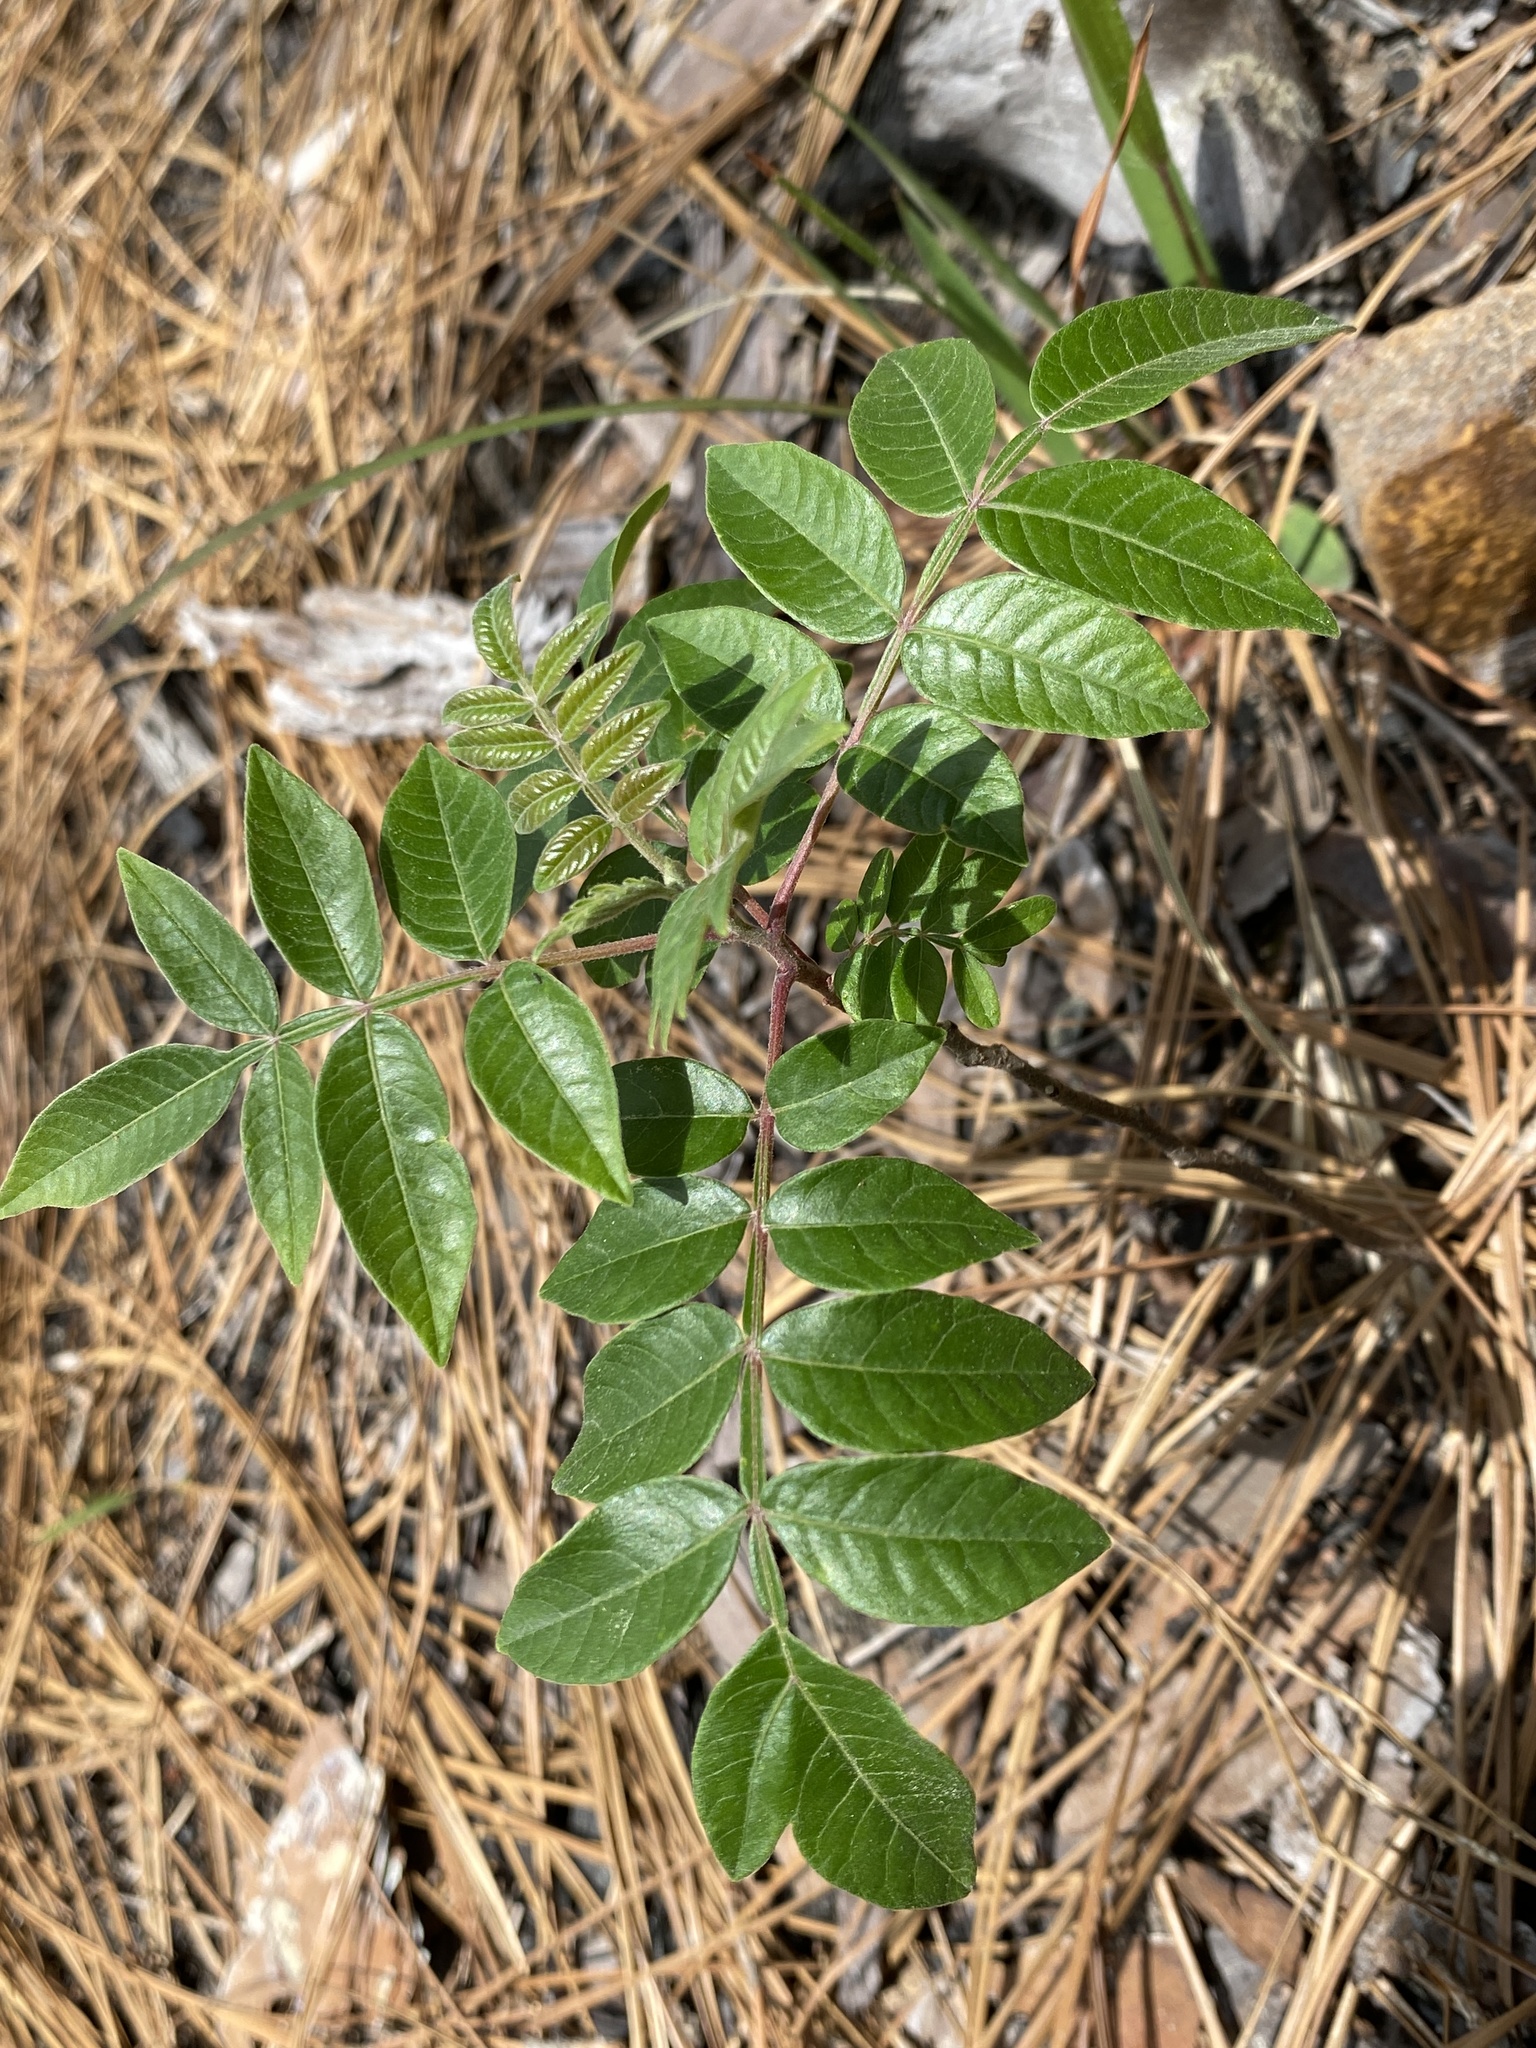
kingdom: Plantae
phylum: Tracheophyta
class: Magnoliopsida
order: Sapindales
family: Anacardiaceae
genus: Rhus
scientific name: Rhus copallina
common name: Shining sumac
